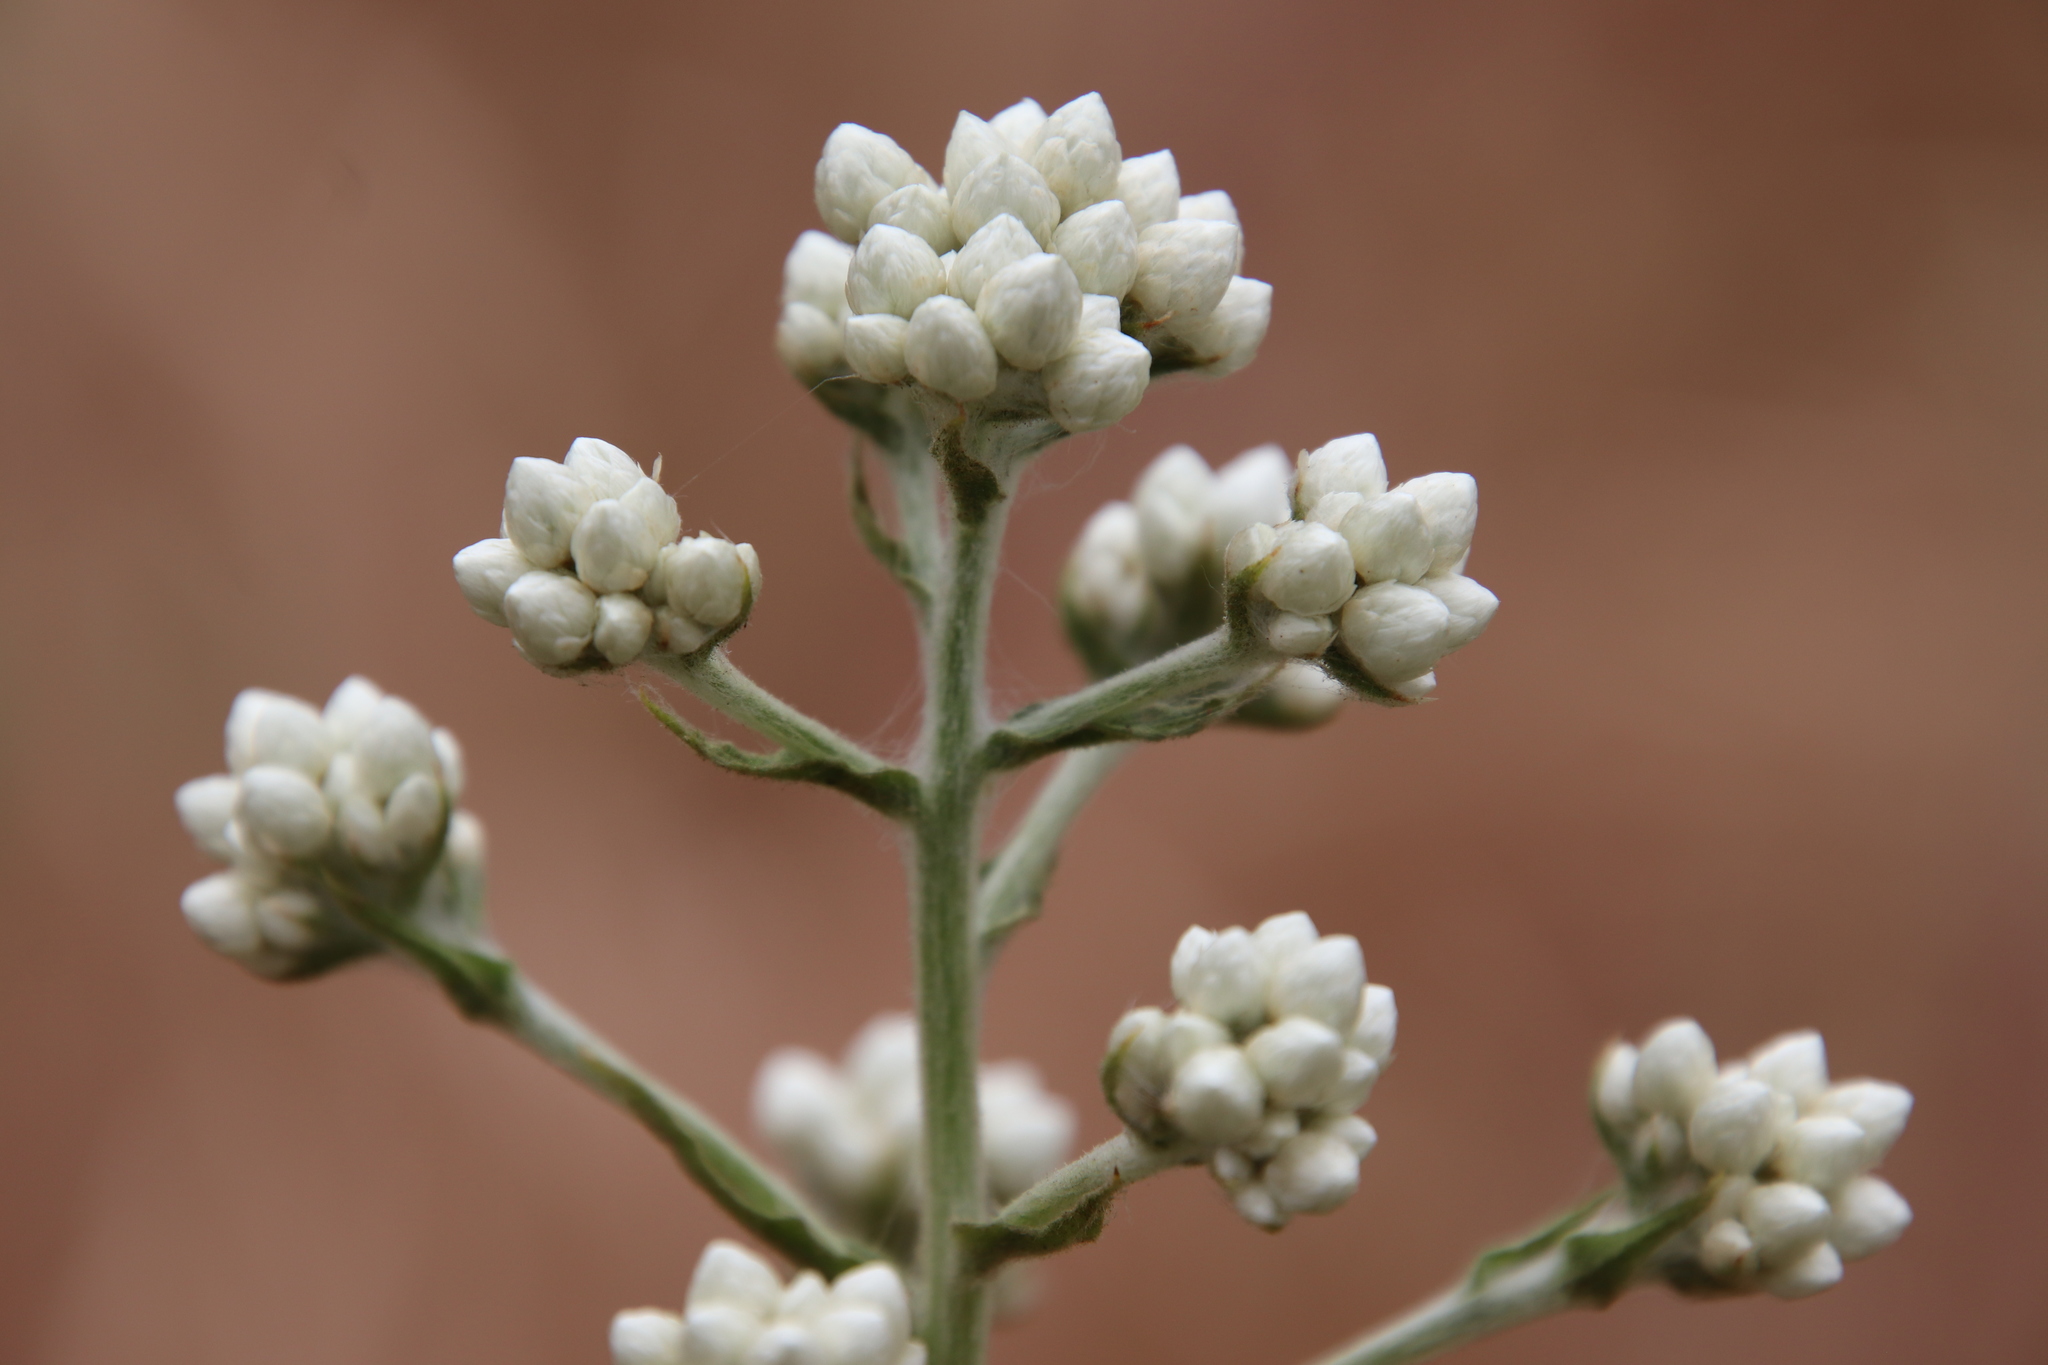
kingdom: Plantae
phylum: Tracheophyta
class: Magnoliopsida
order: Asterales
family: Asteraceae
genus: Pseudognaphalium
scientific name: Pseudognaphalium californicum
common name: California rabbit-tobacco
